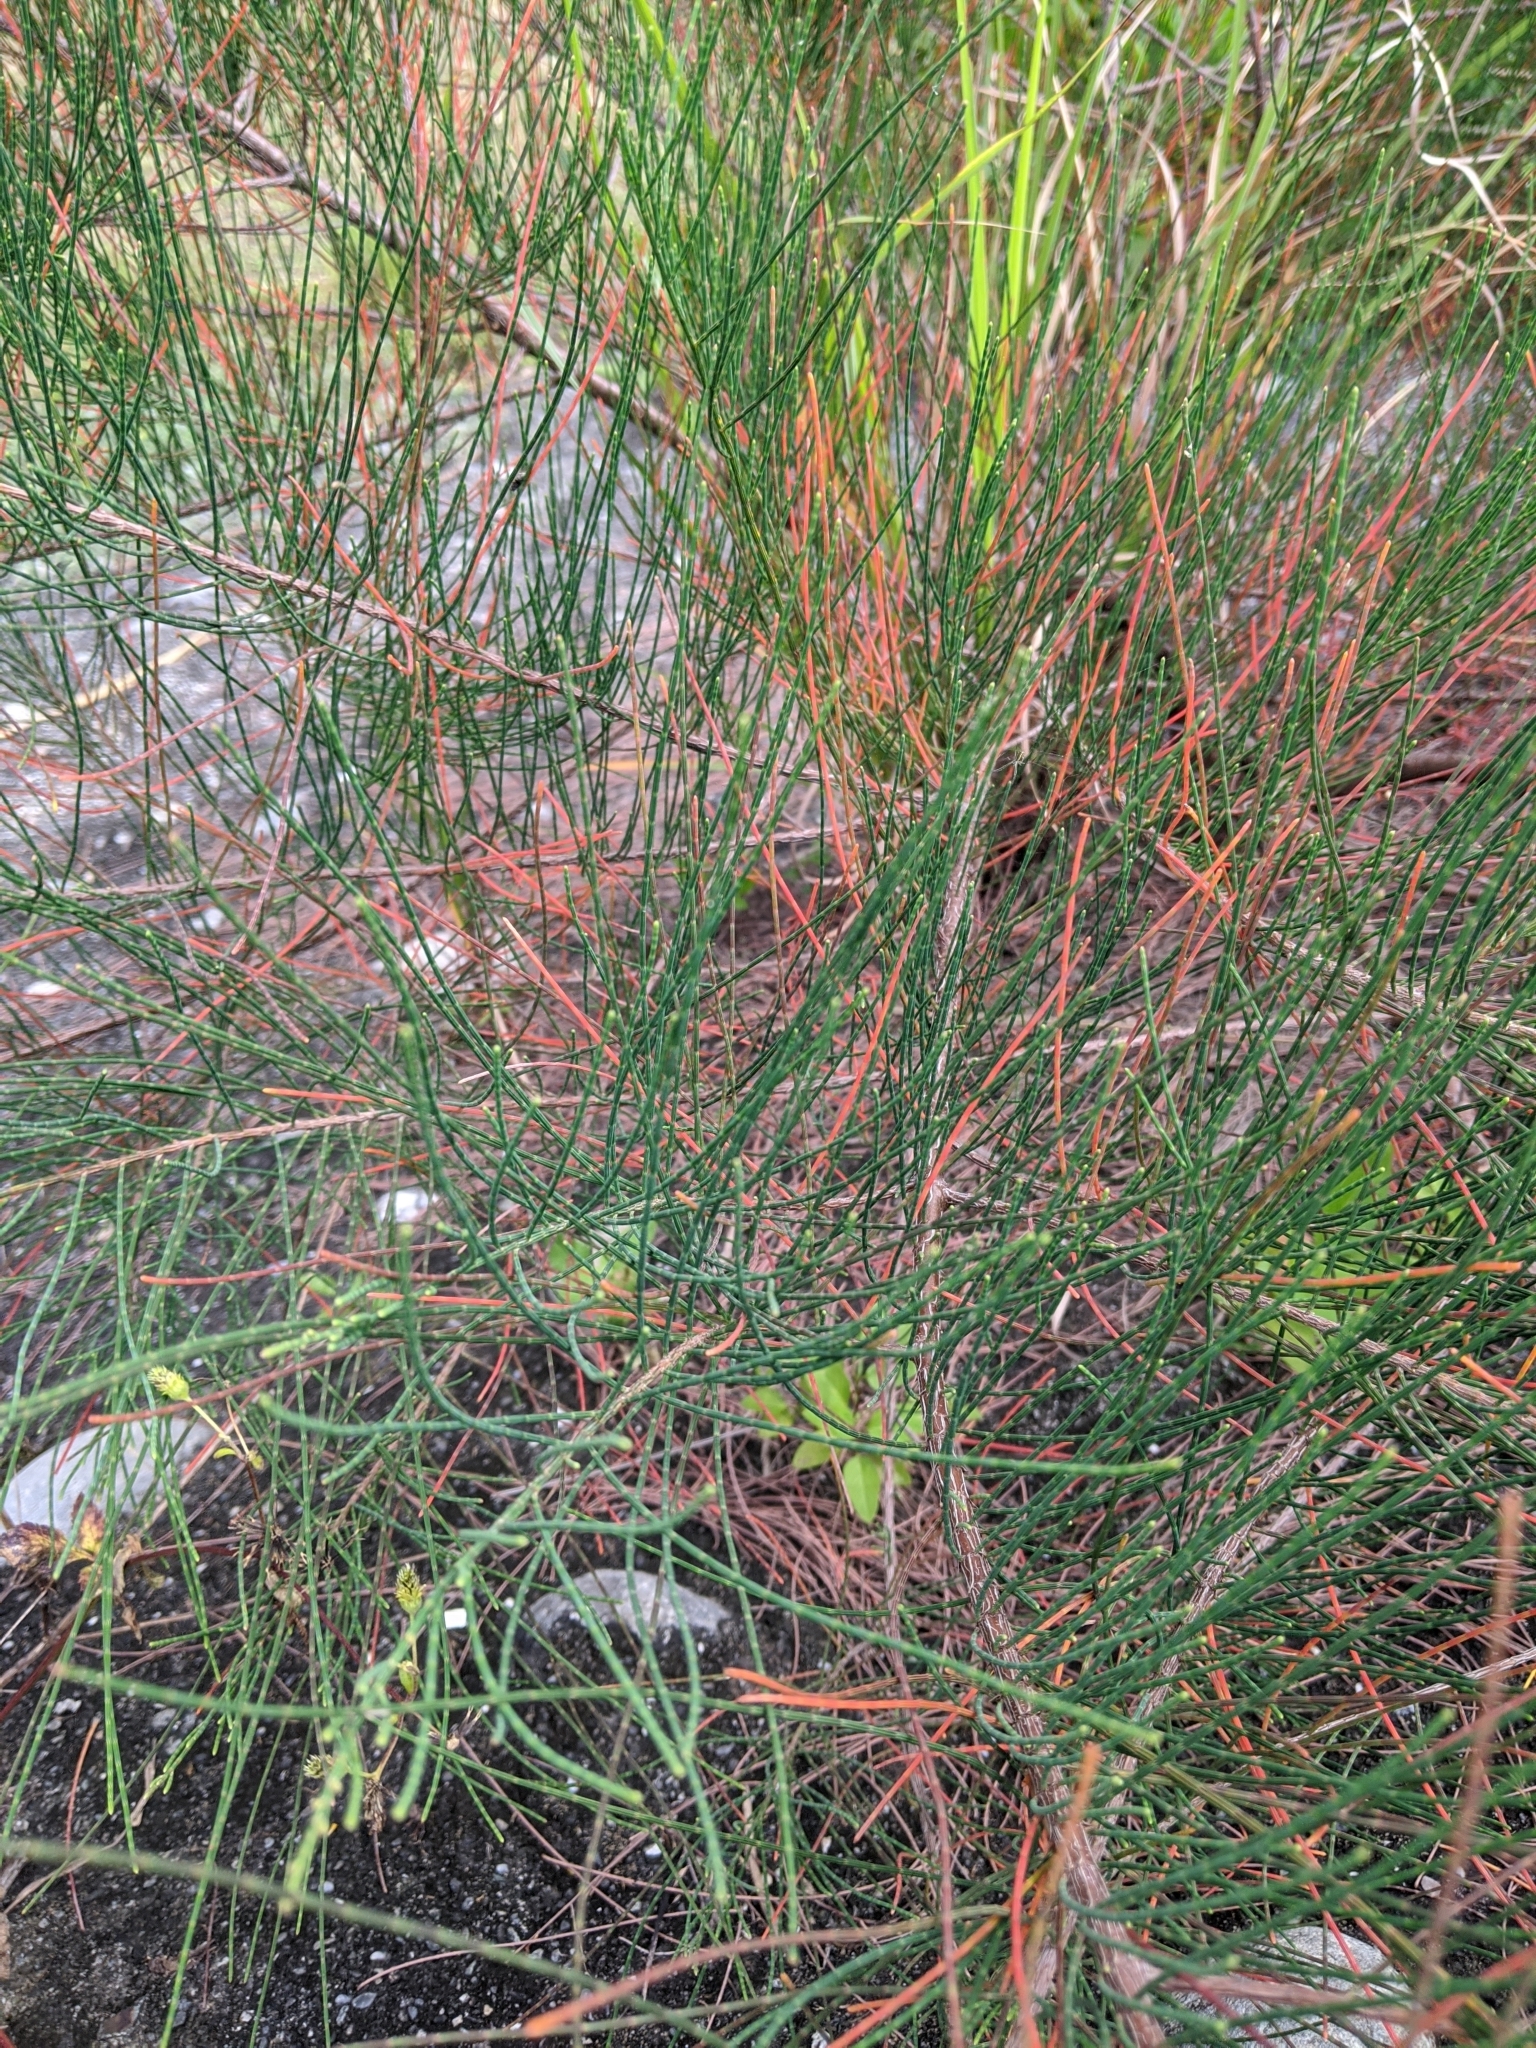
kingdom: Plantae
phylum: Tracheophyta
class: Magnoliopsida
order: Fagales
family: Casuarinaceae
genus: Casuarina
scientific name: Casuarina equisetifolia
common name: Beach sheoak
